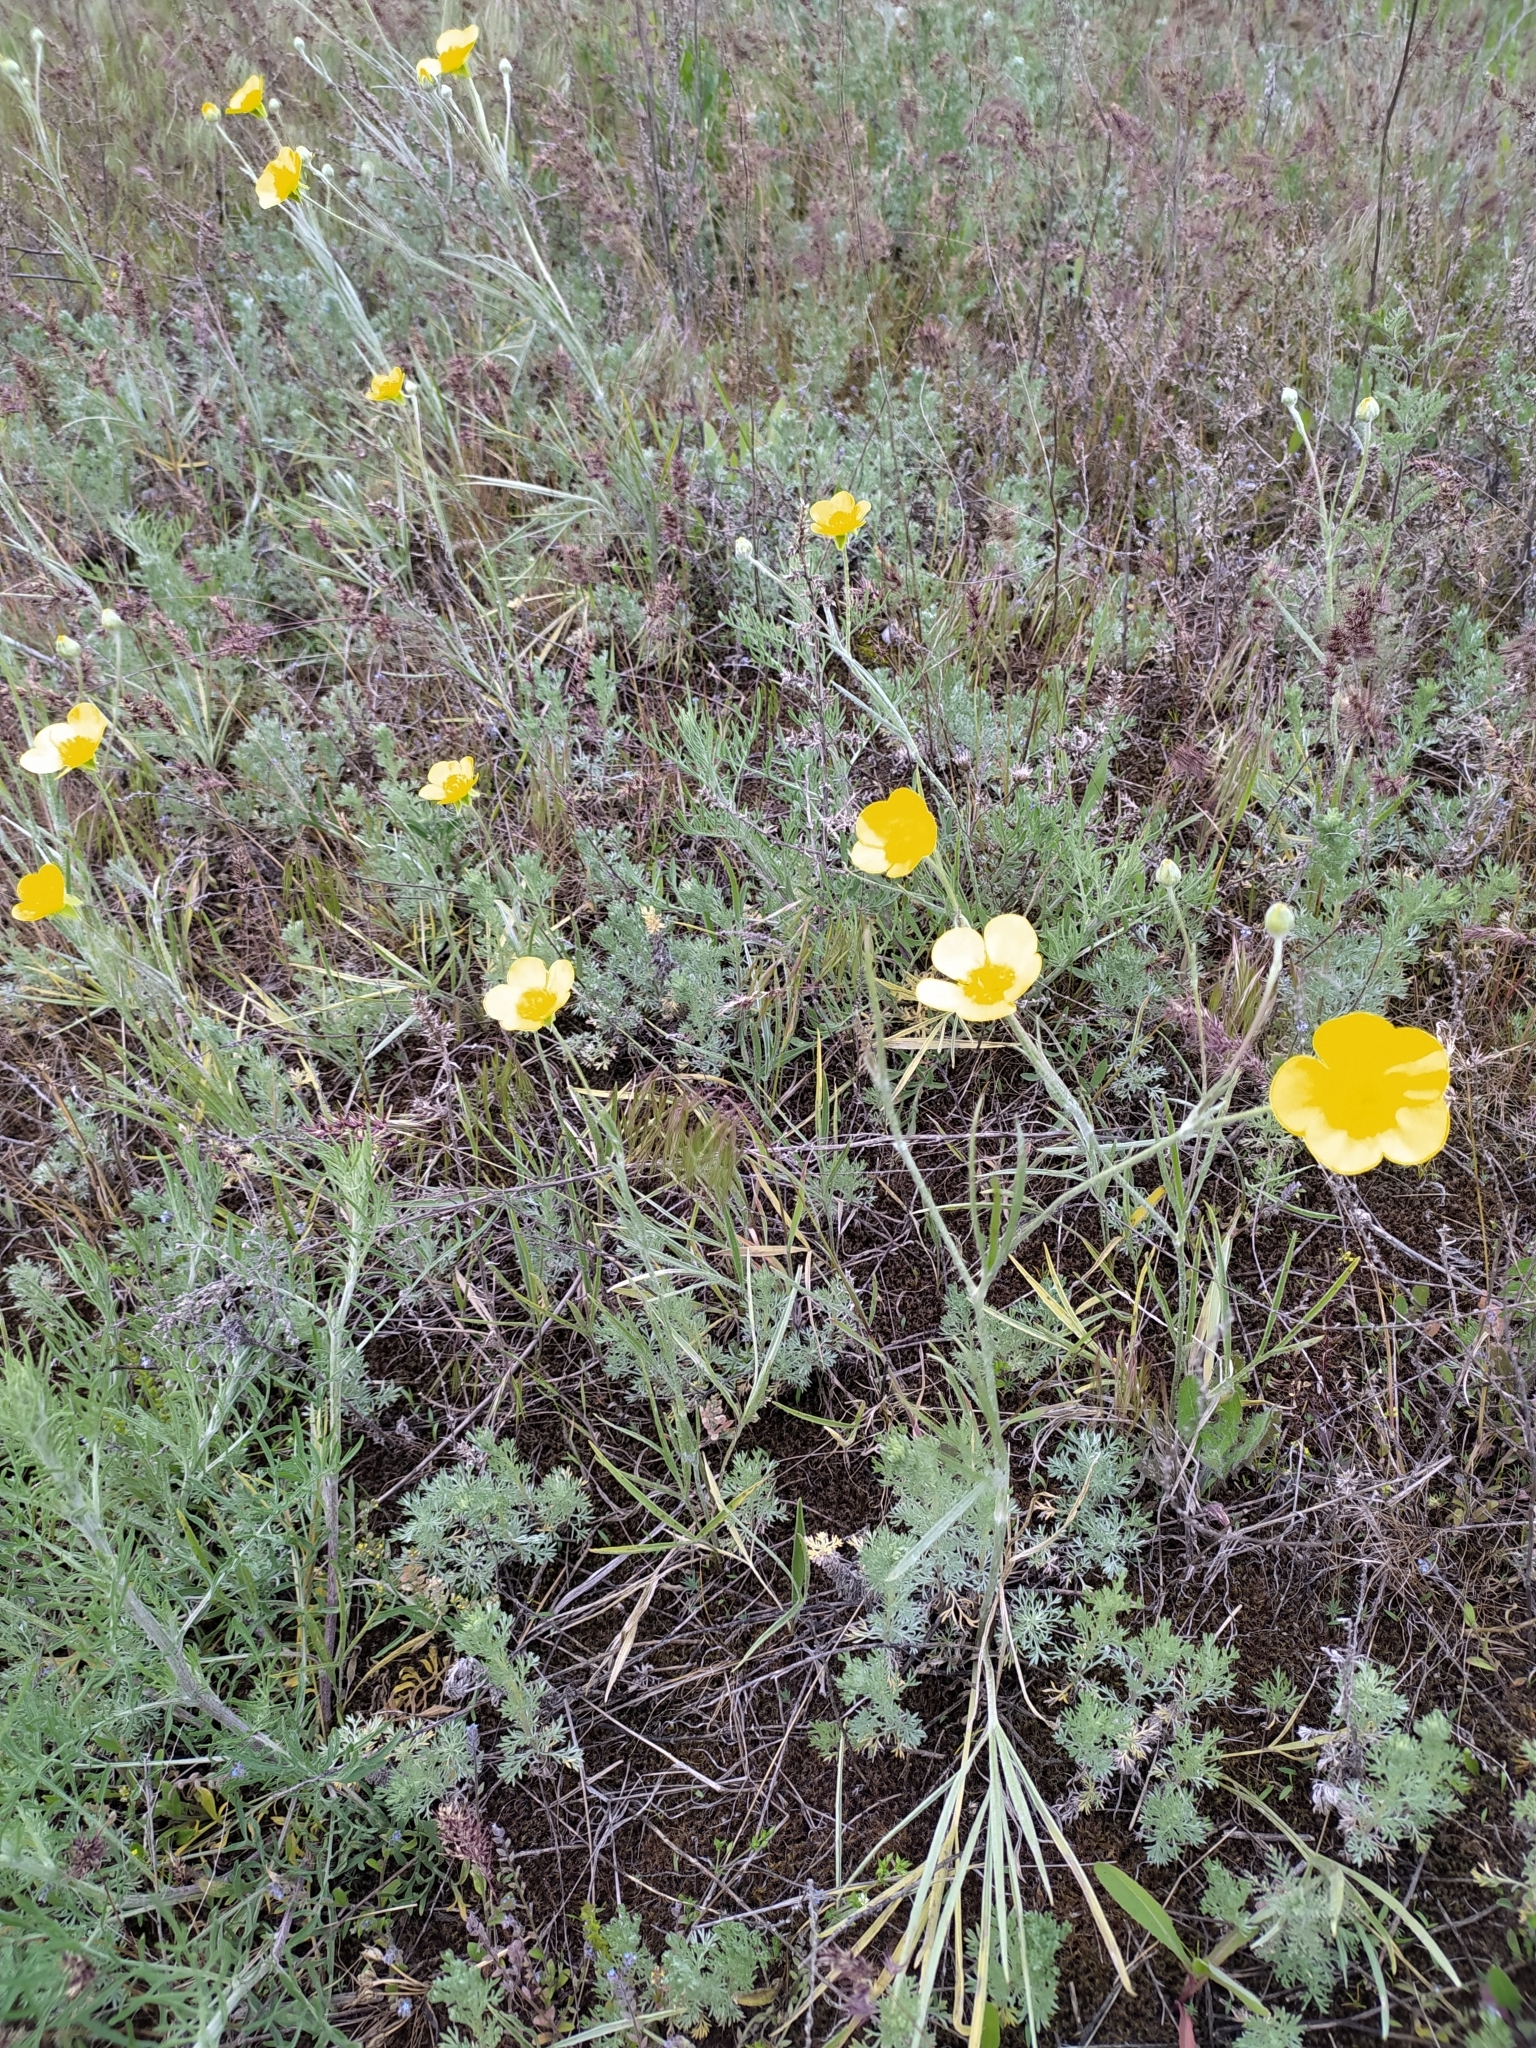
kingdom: Plantae
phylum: Tracheophyta
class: Magnoliopsida
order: Ranunculales
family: Ranunculaceae
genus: Ranunculus
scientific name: Ranunculus illyricus
